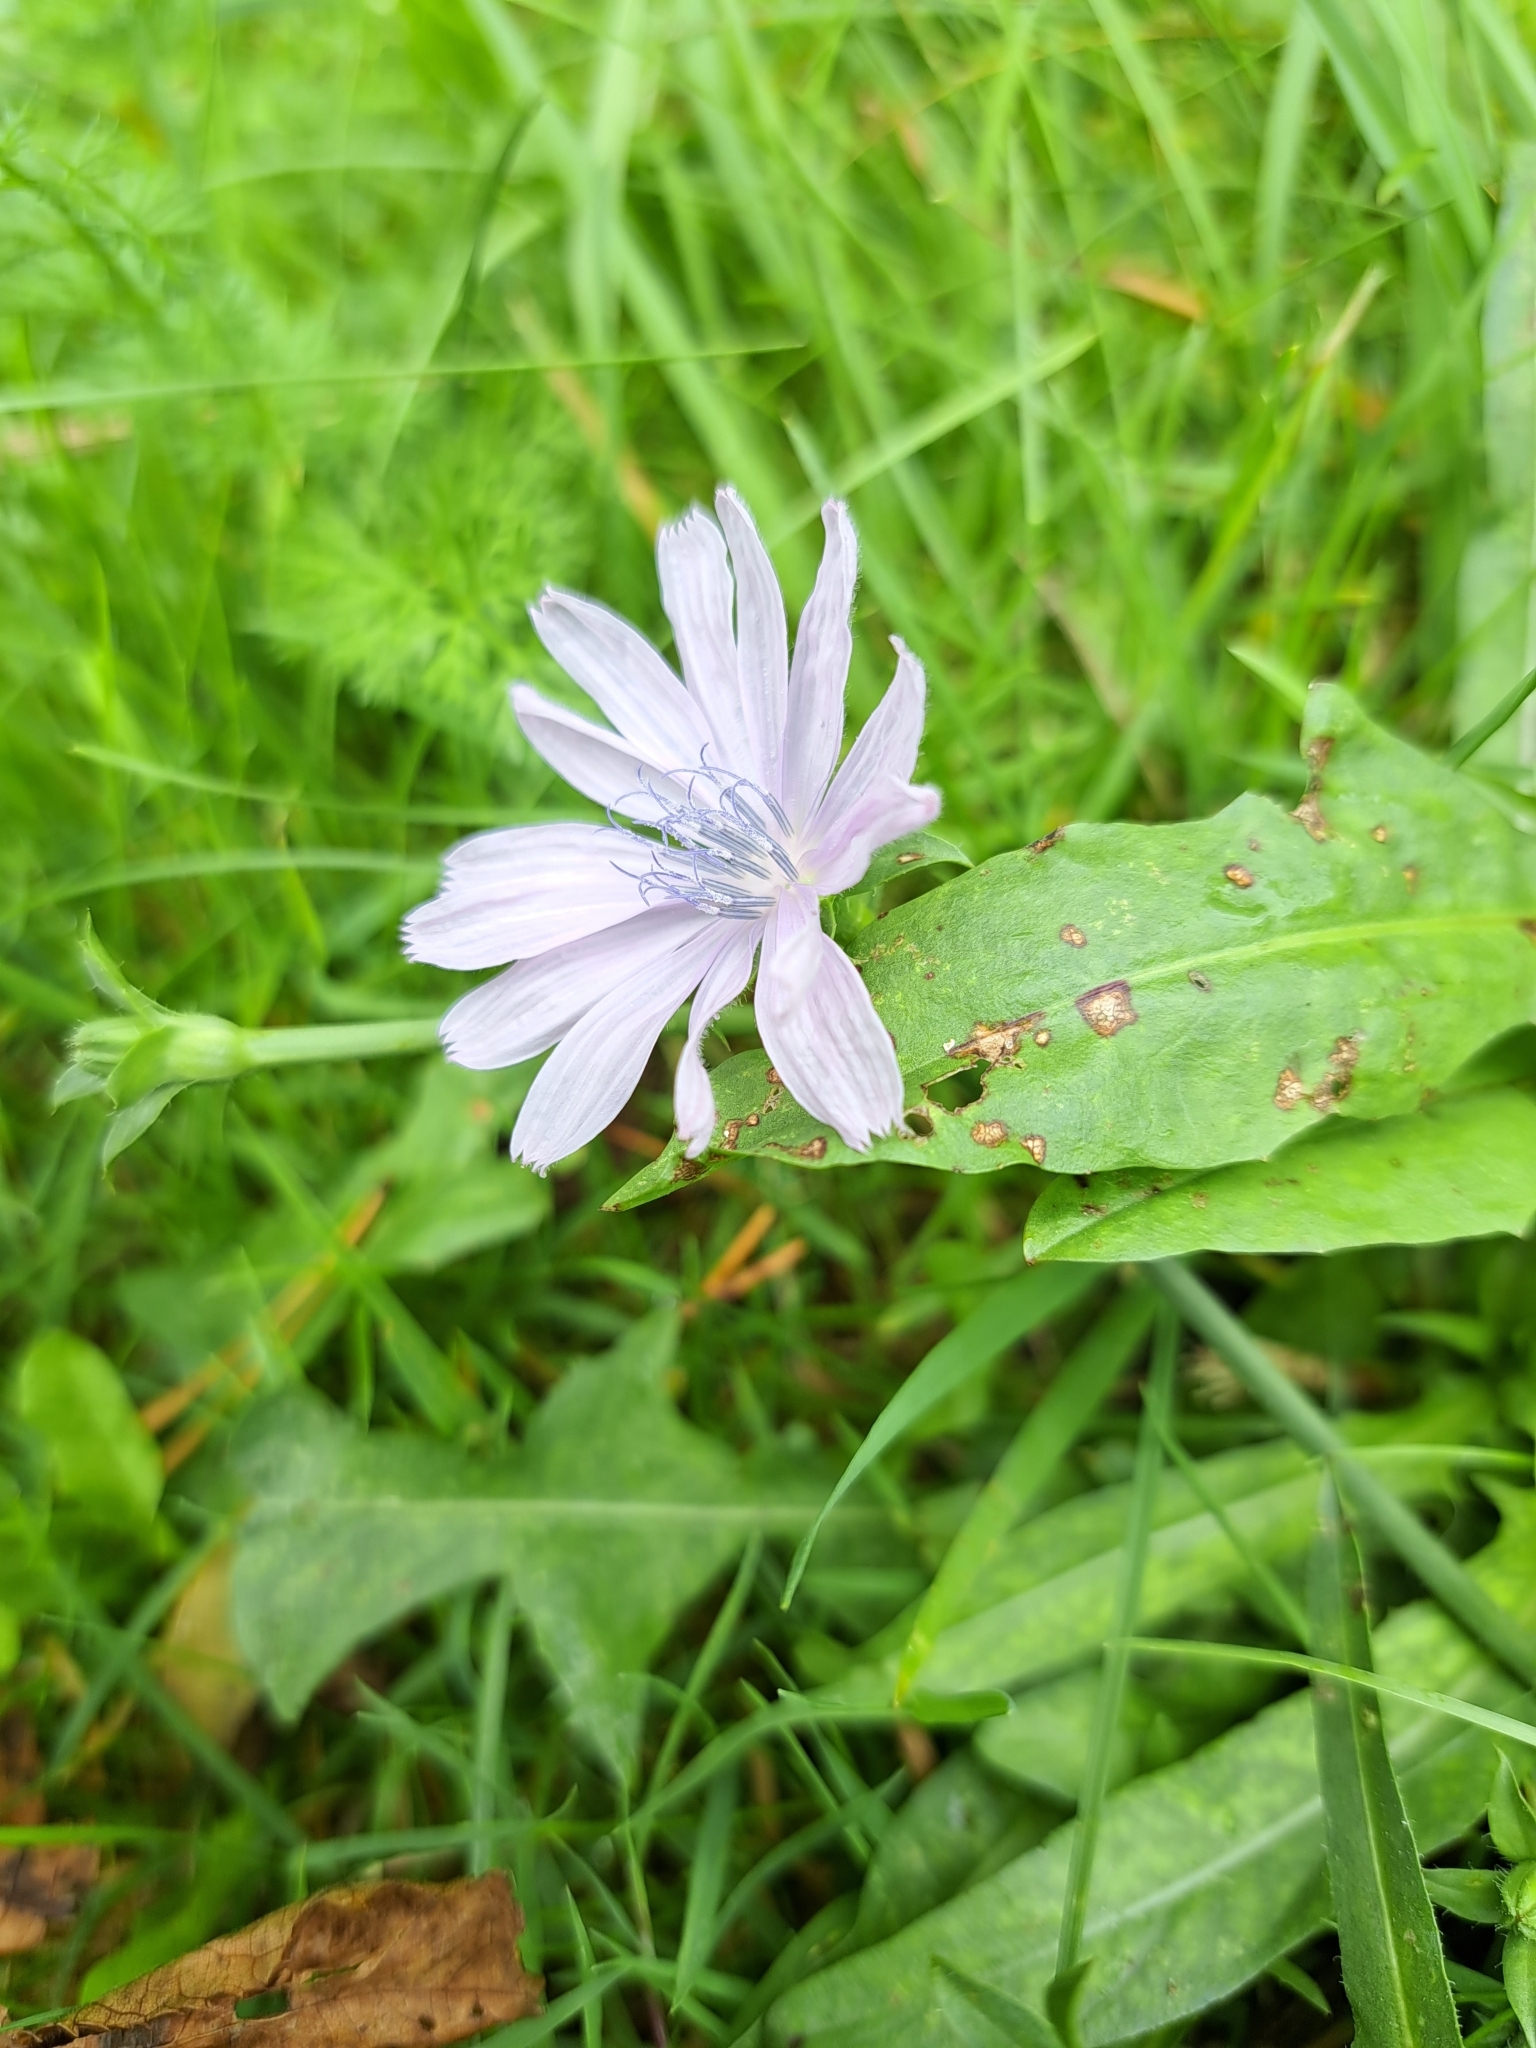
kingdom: Plantae
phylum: Tracheophyta
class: Magnoliopsida
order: Asterales
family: Asteraceae
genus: Cichorium
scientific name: Cichorium intybus
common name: Chicory
